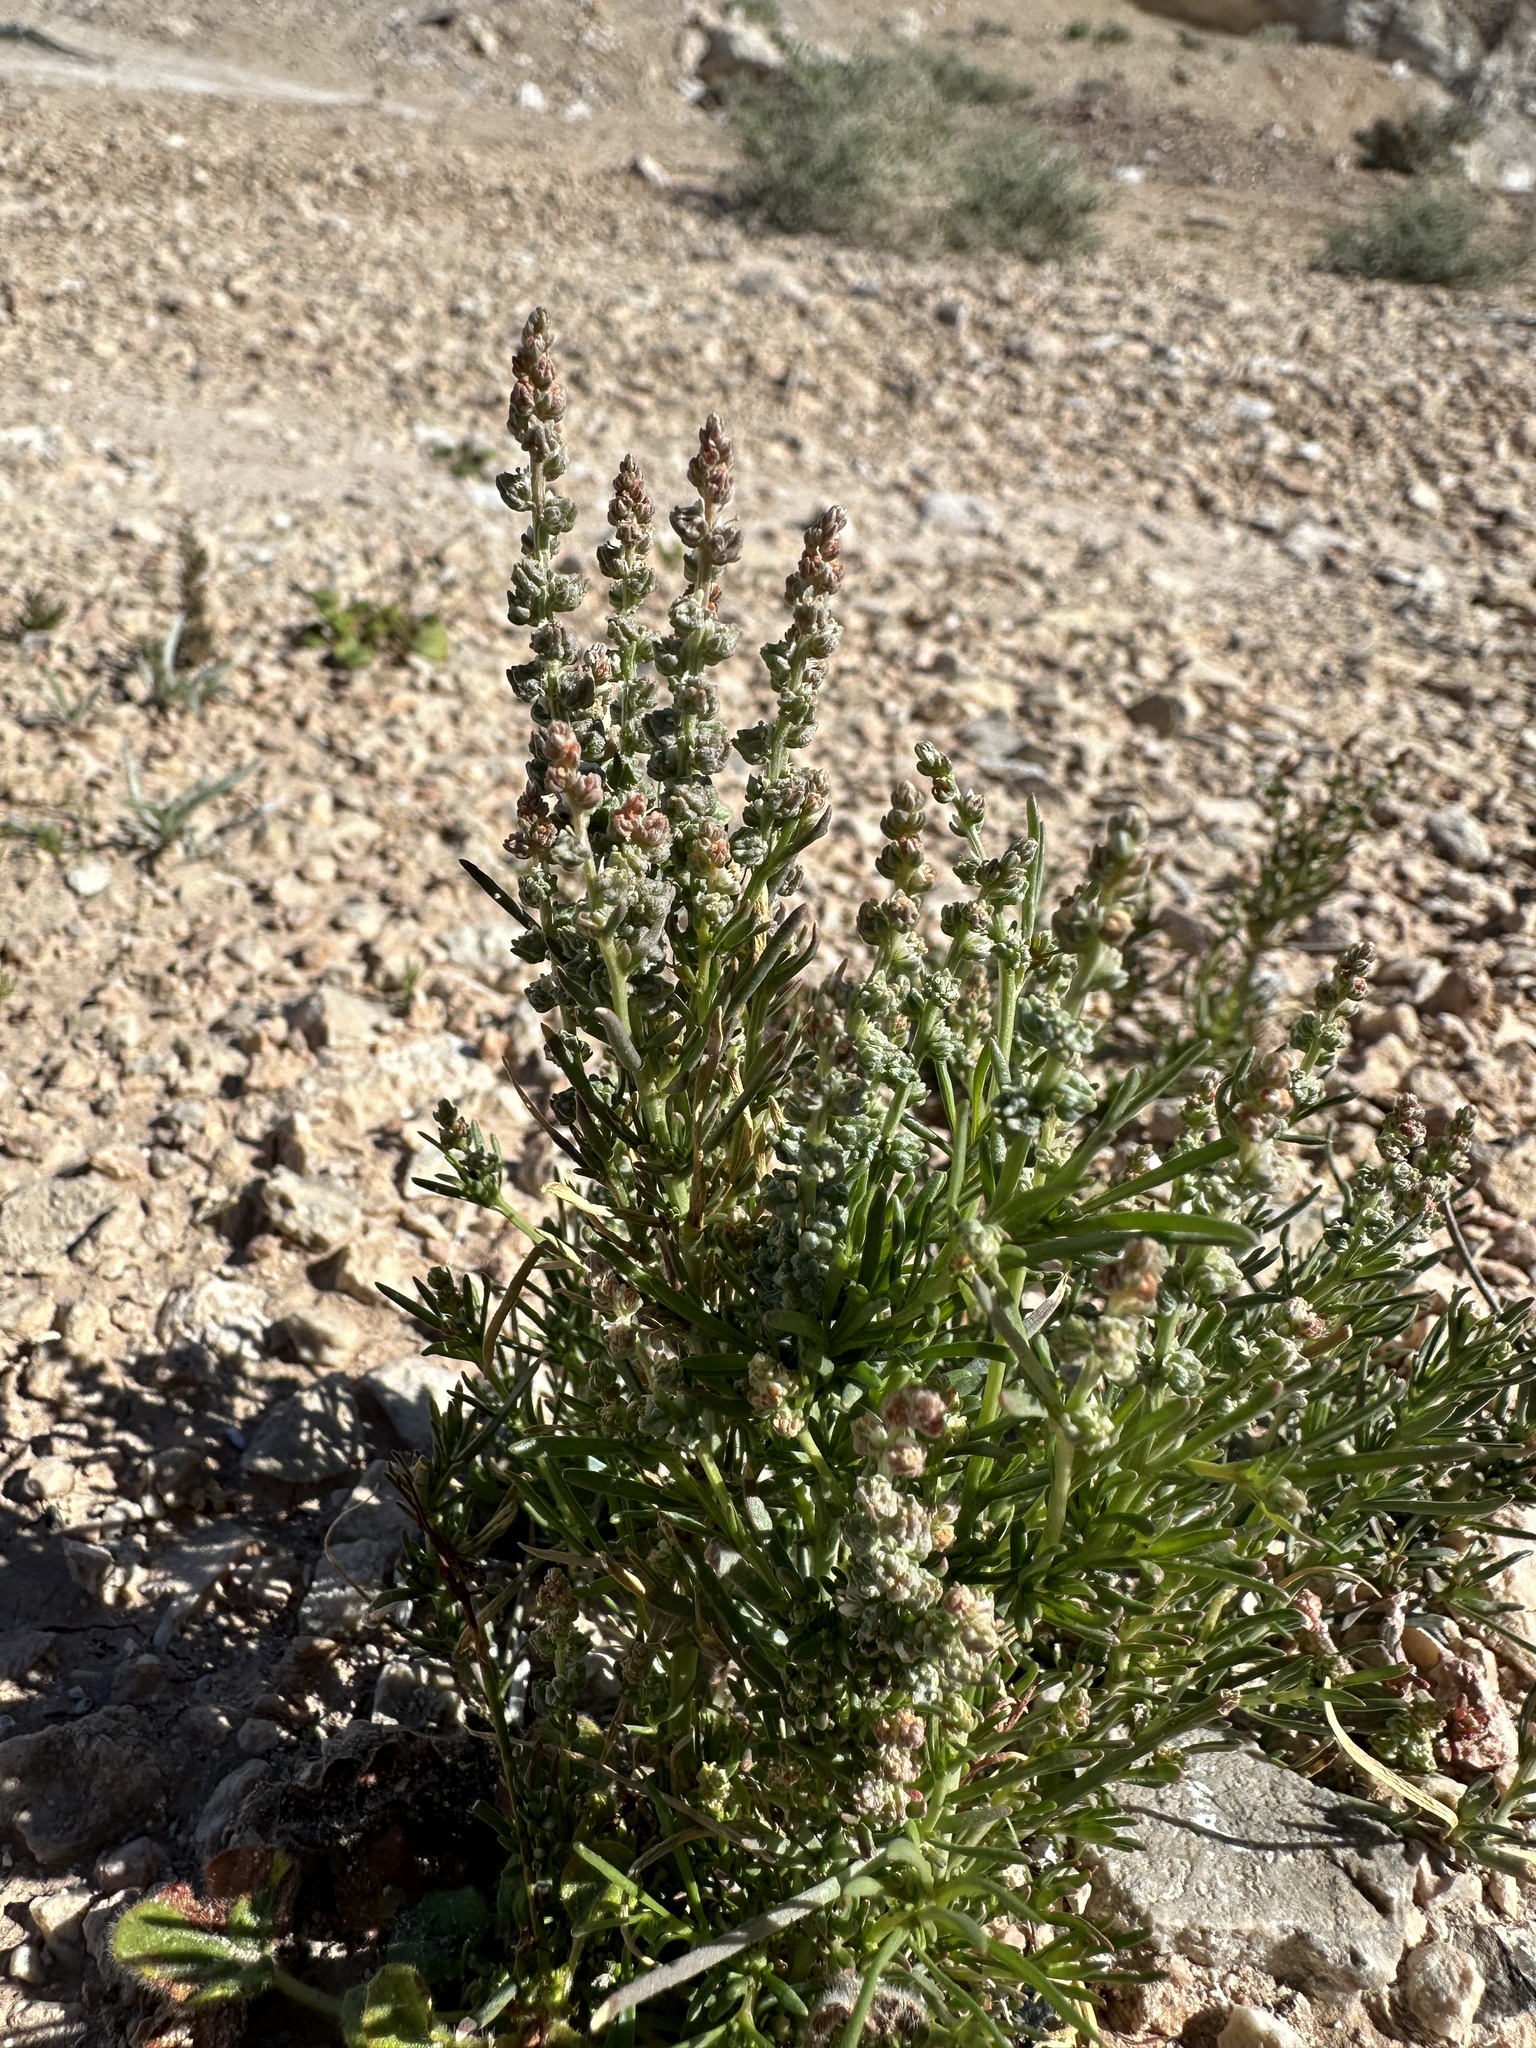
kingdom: Plantae
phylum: Tracheophyta
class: Magnoliopsida
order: Brassicales
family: Resedaceae
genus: Oligomeris
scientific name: Oligomeris linifolia
